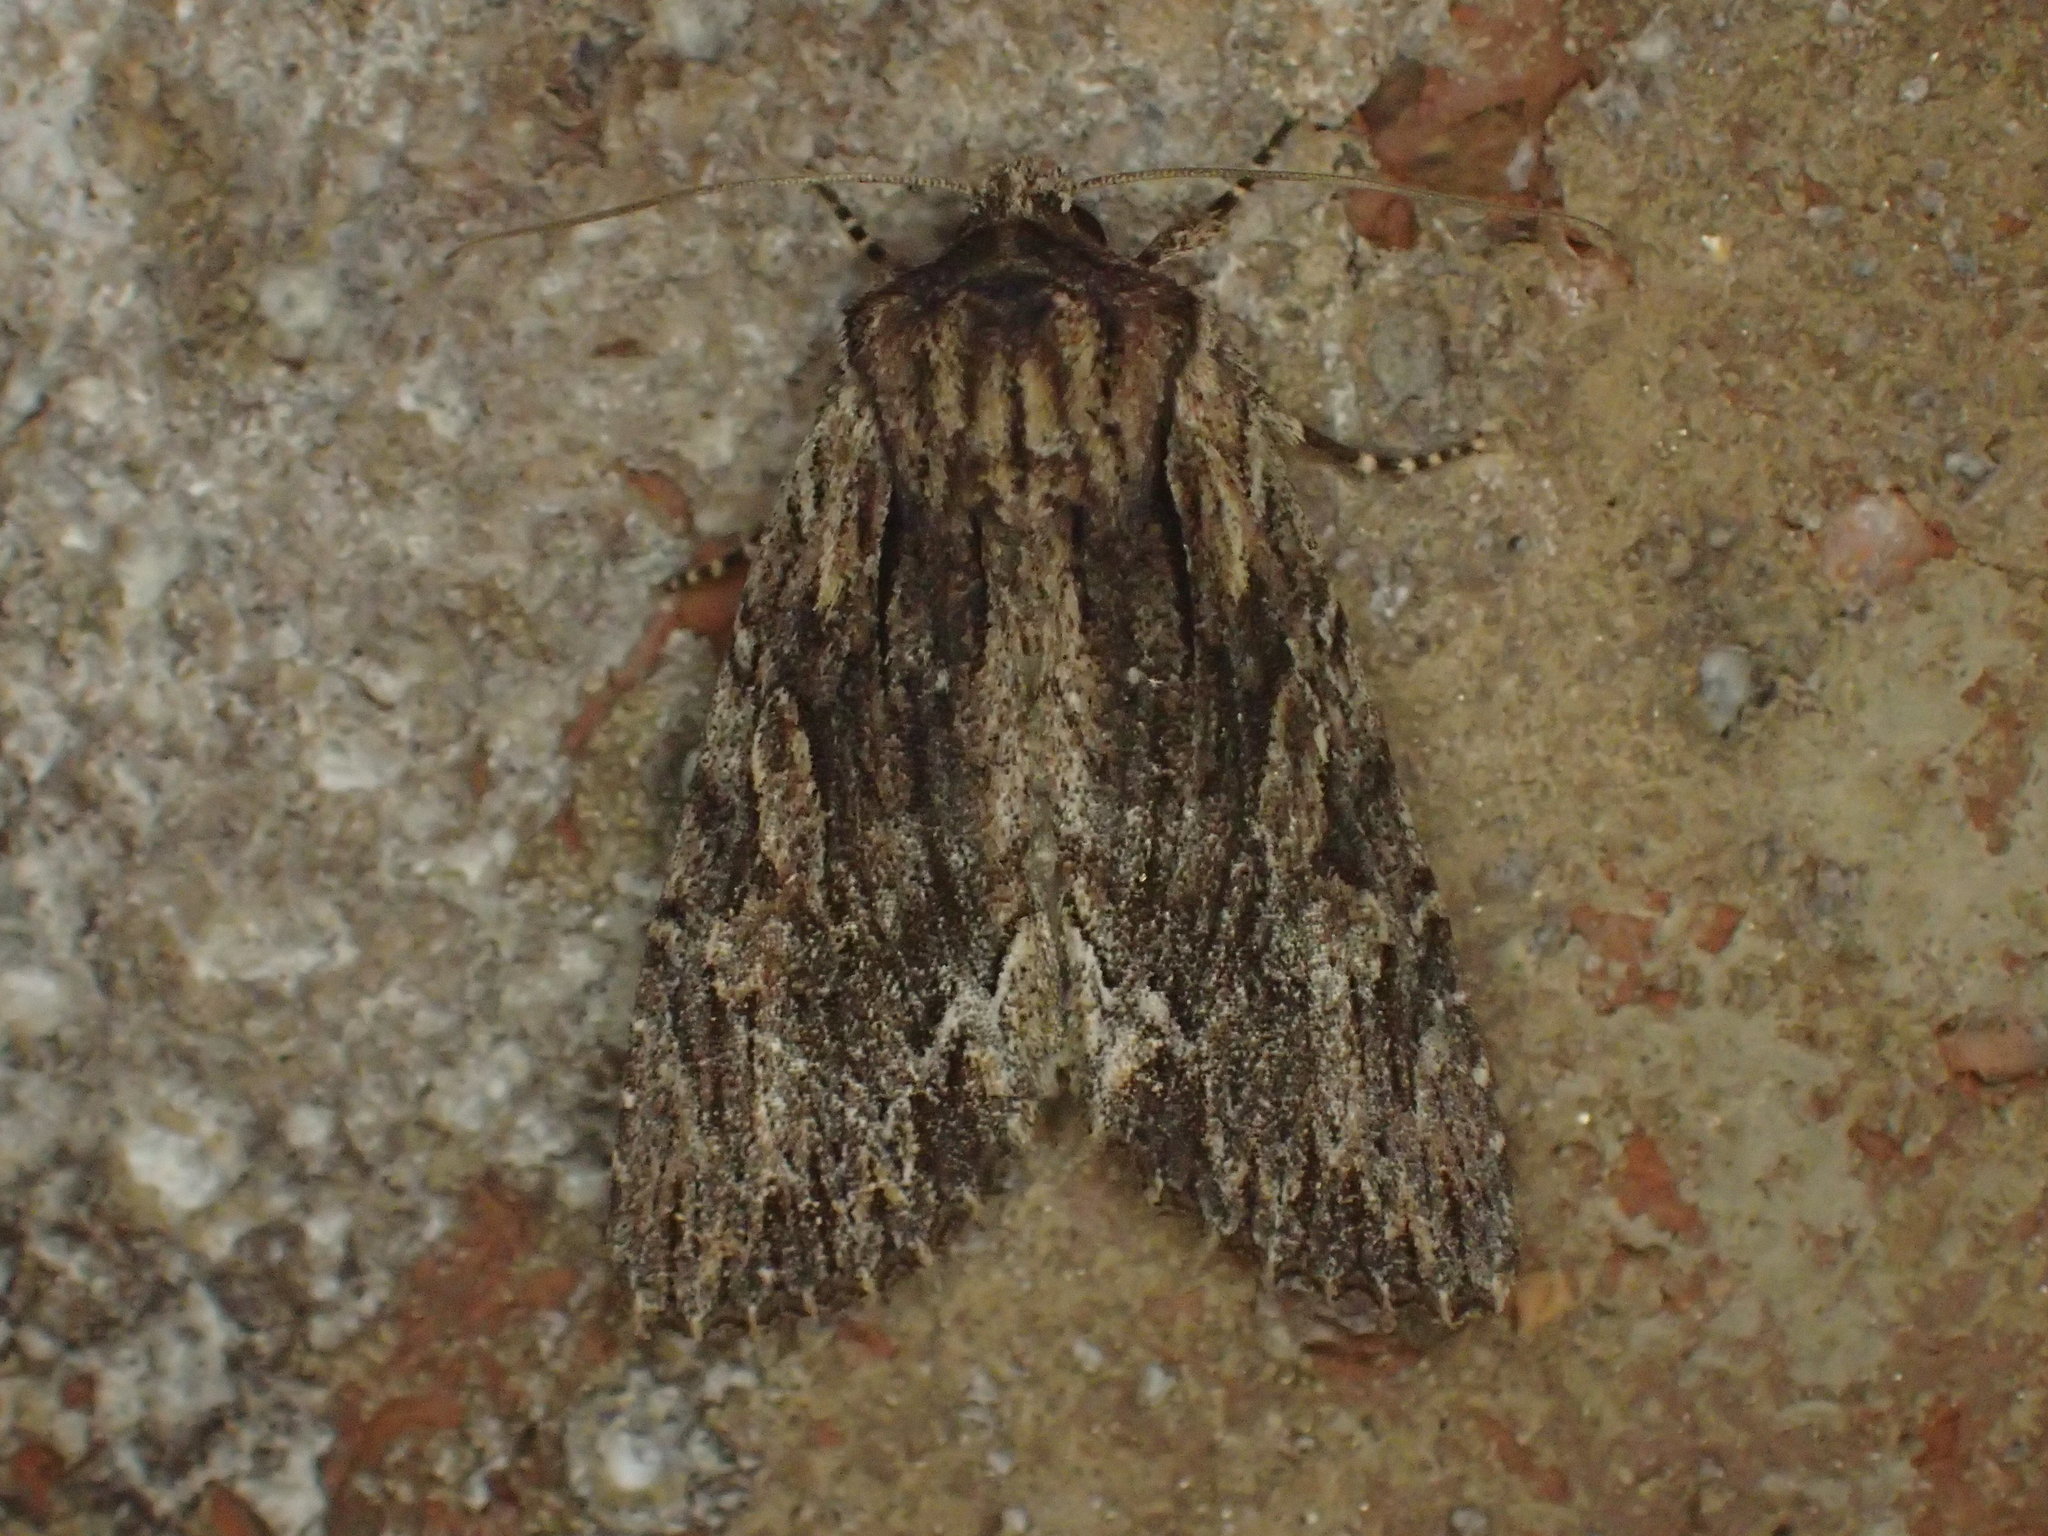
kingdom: Animalia
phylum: Arthropoda
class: Insecta
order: Lepidoptera
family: Noctuidae
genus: Achatia
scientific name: Achatia confusa
